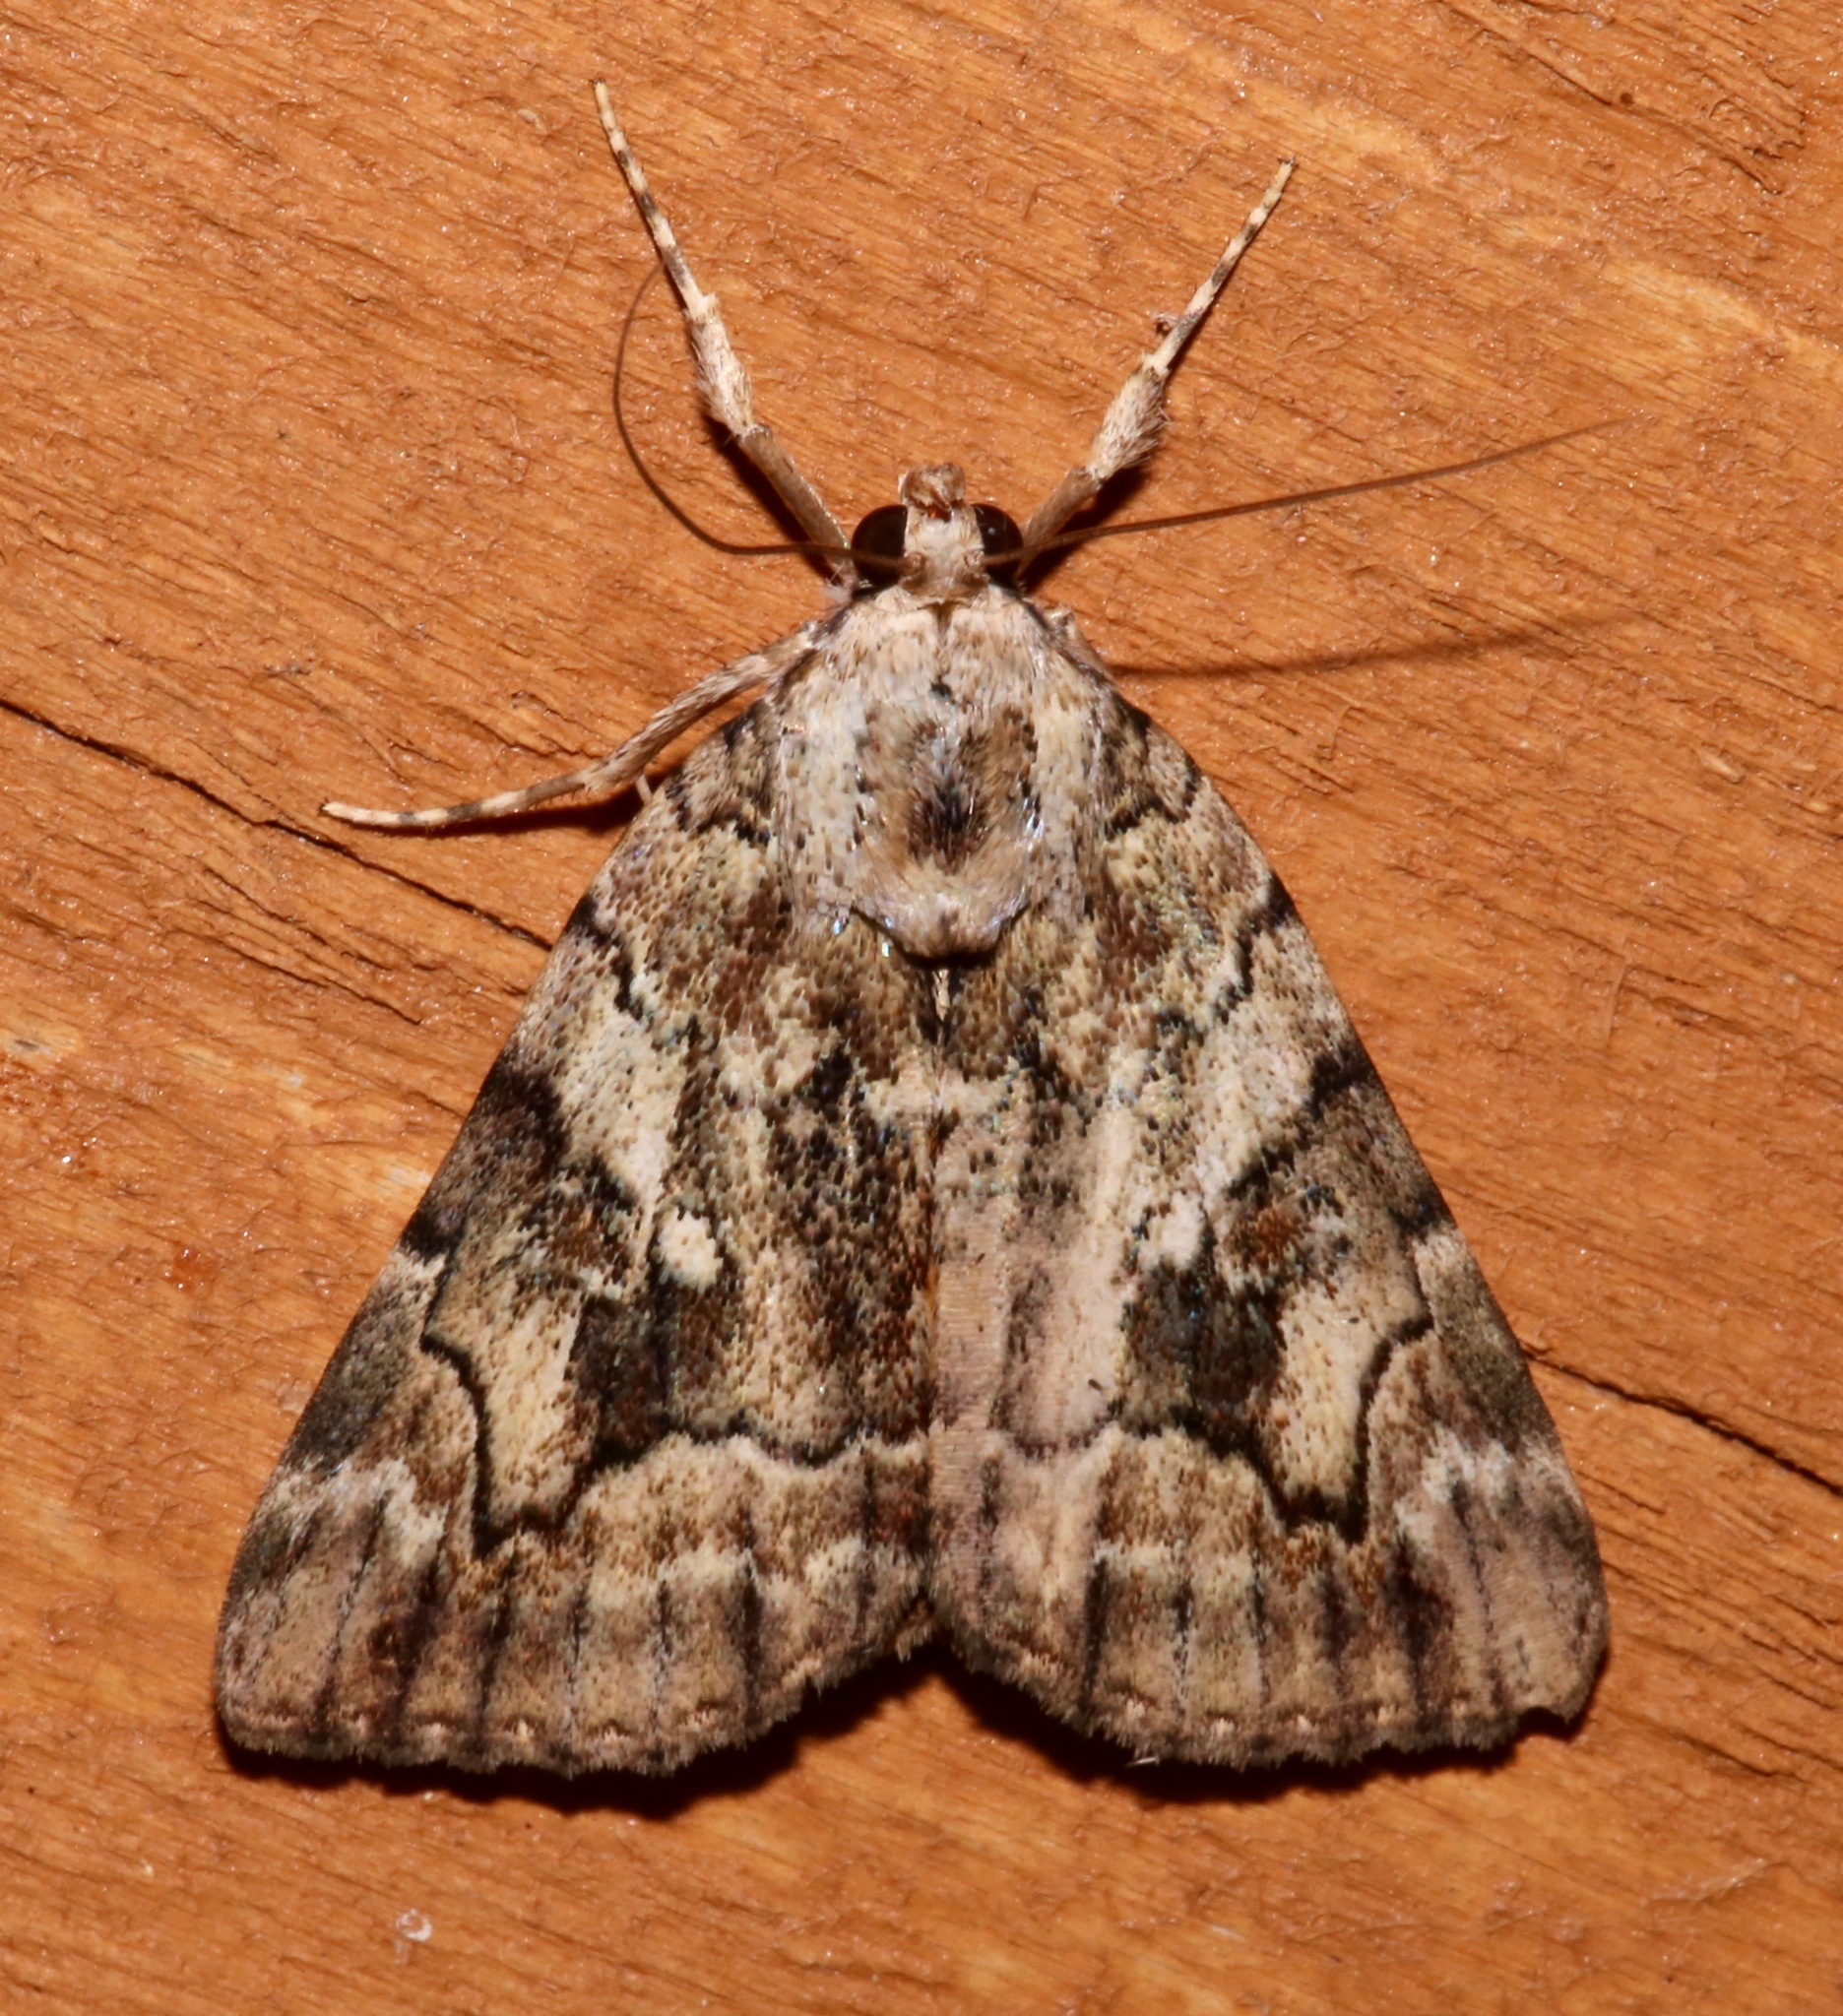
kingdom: Animalia
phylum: Arthropoda
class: Insecta
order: Lepidoptera
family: Erebidae
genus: Catocala
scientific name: Catocala micronympha
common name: Little nymph underwing
